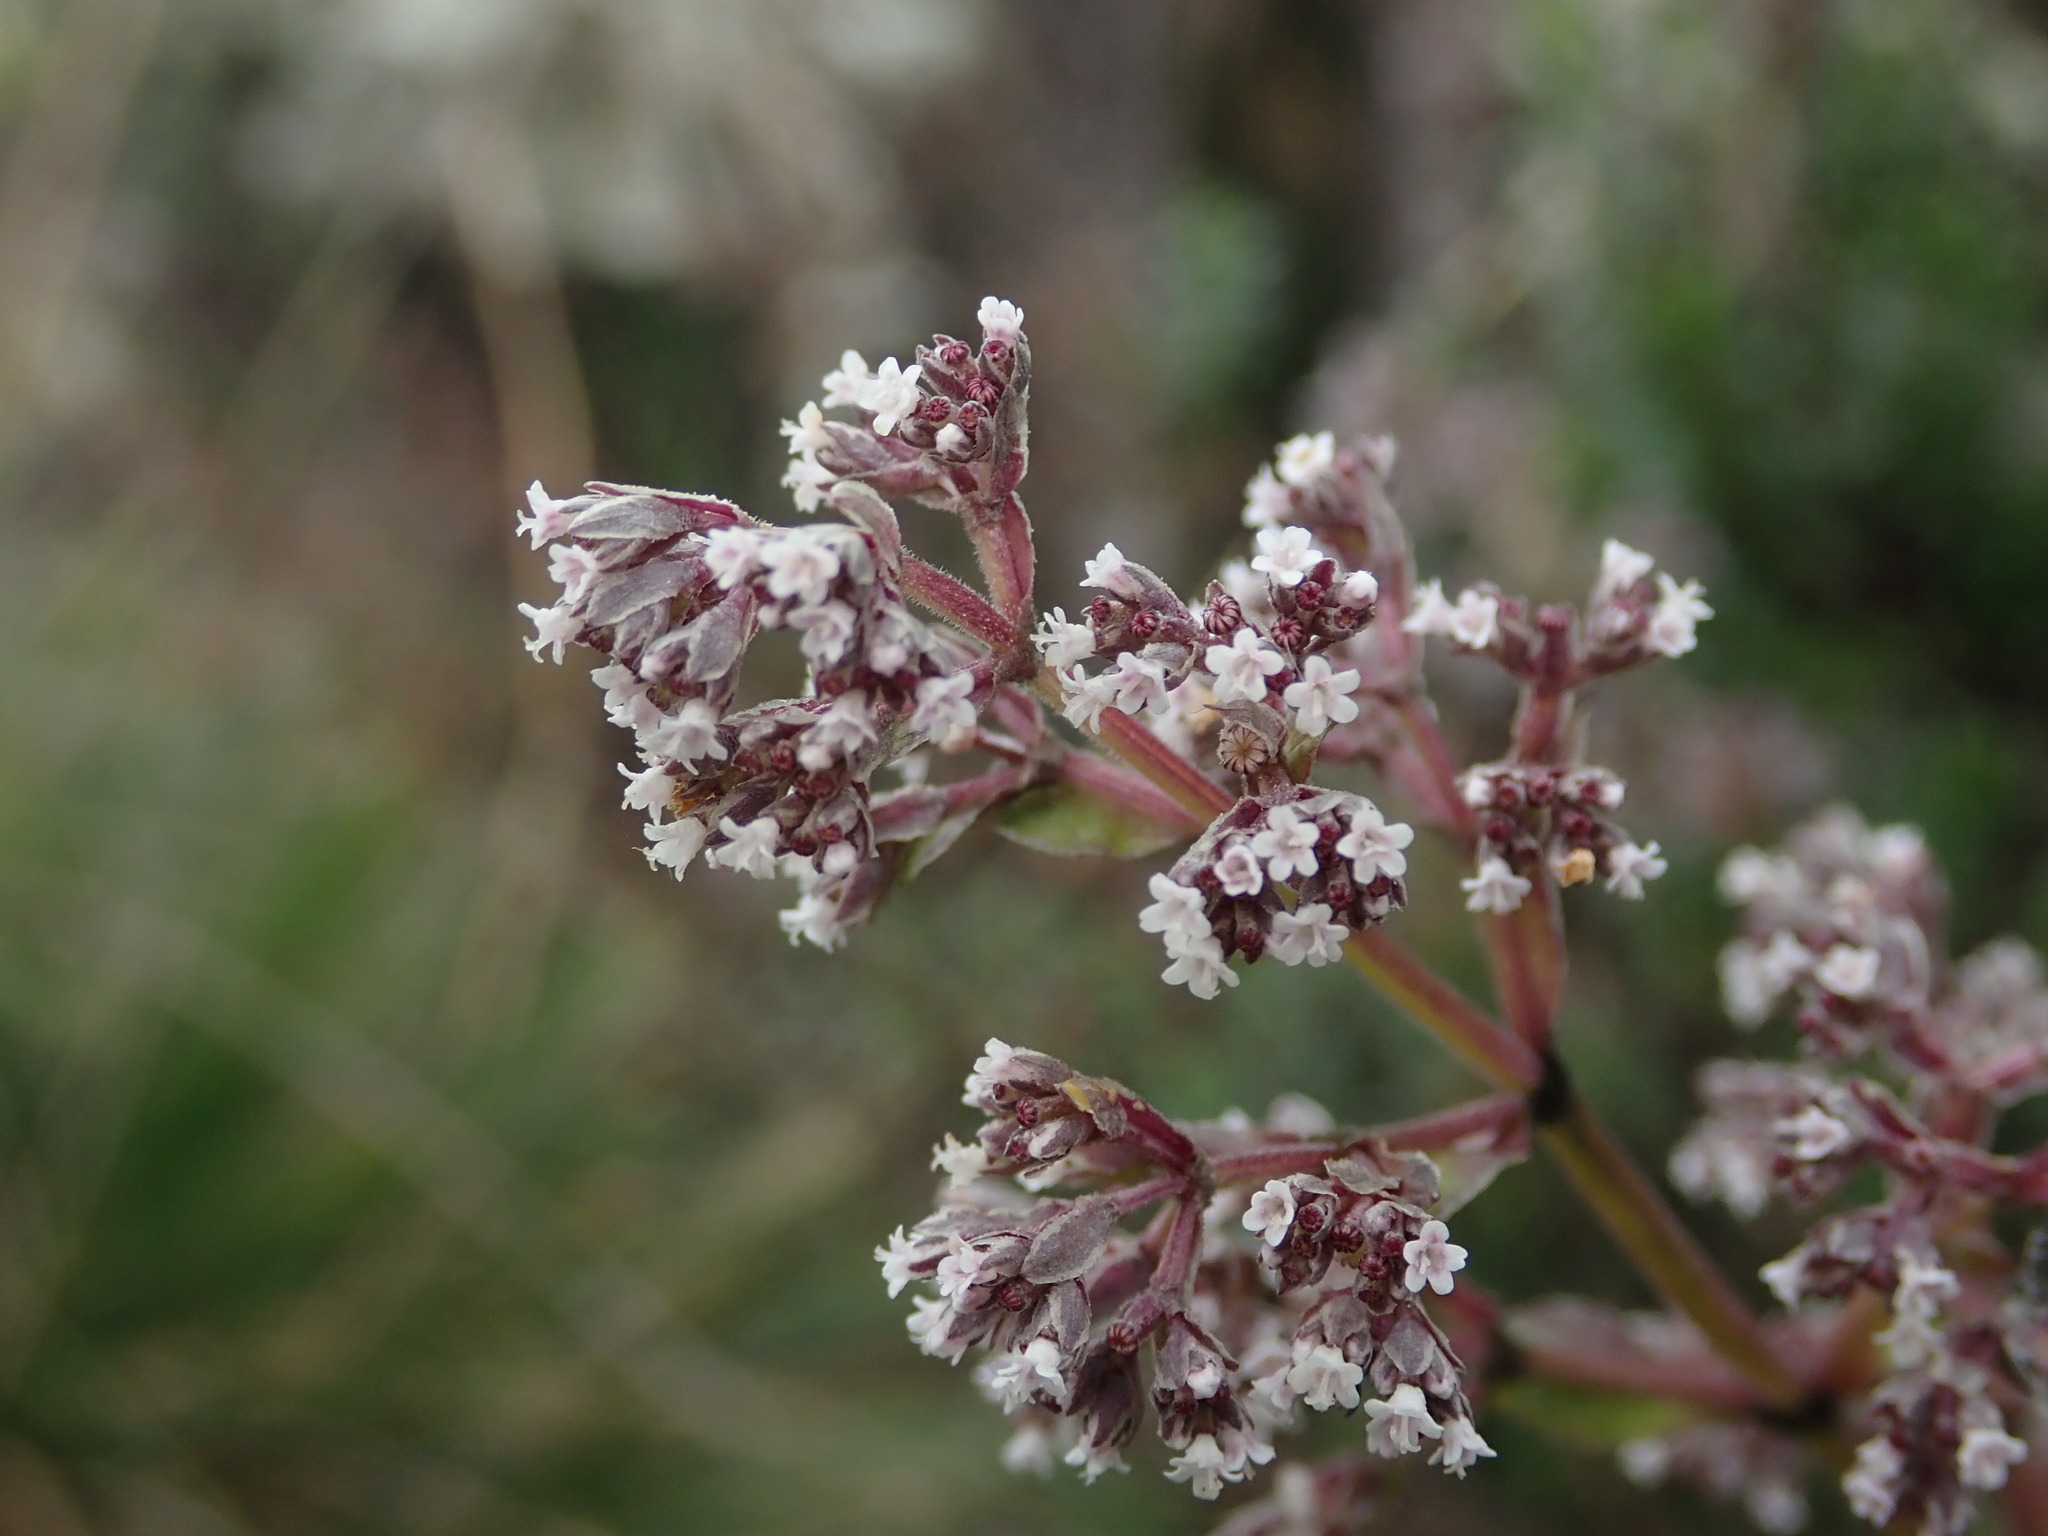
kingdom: Plantae
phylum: Tracheophyta
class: Magnoliopsida
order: Dipsacales
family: Caprifoliaceae
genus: Valeriana
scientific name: Valeriana microphylla
